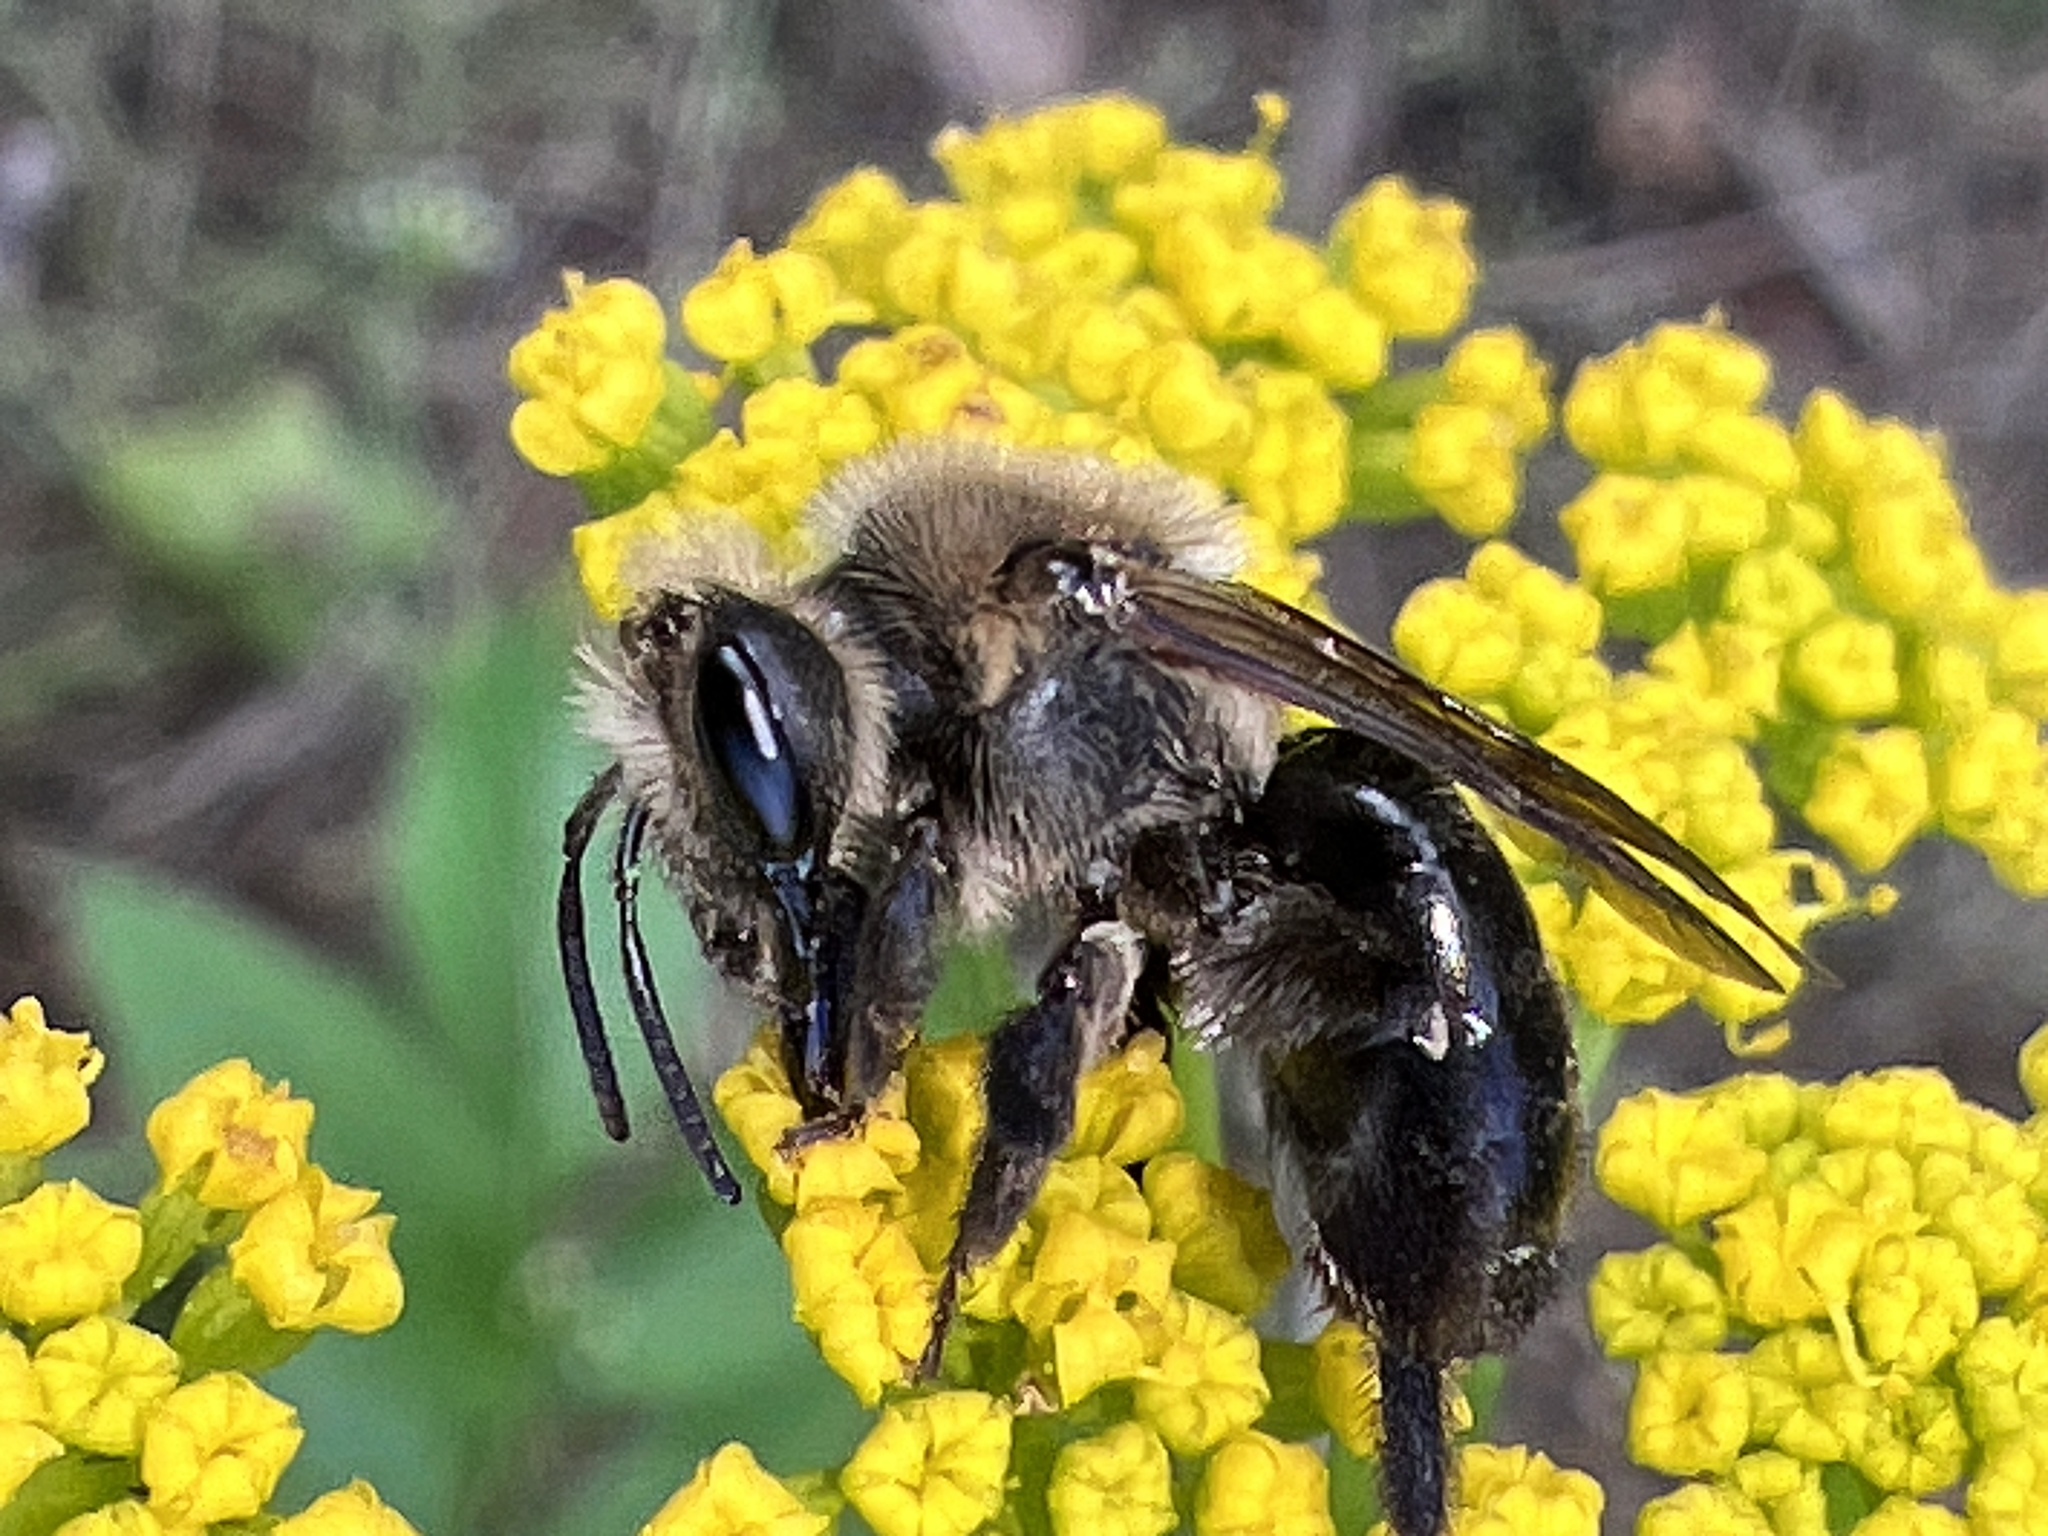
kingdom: Animalia
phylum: Arthropoda
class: Insecta
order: Hymenoptera
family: Andrenidae
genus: Andrena
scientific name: Andrena vicina
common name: Neighborly mining bee
